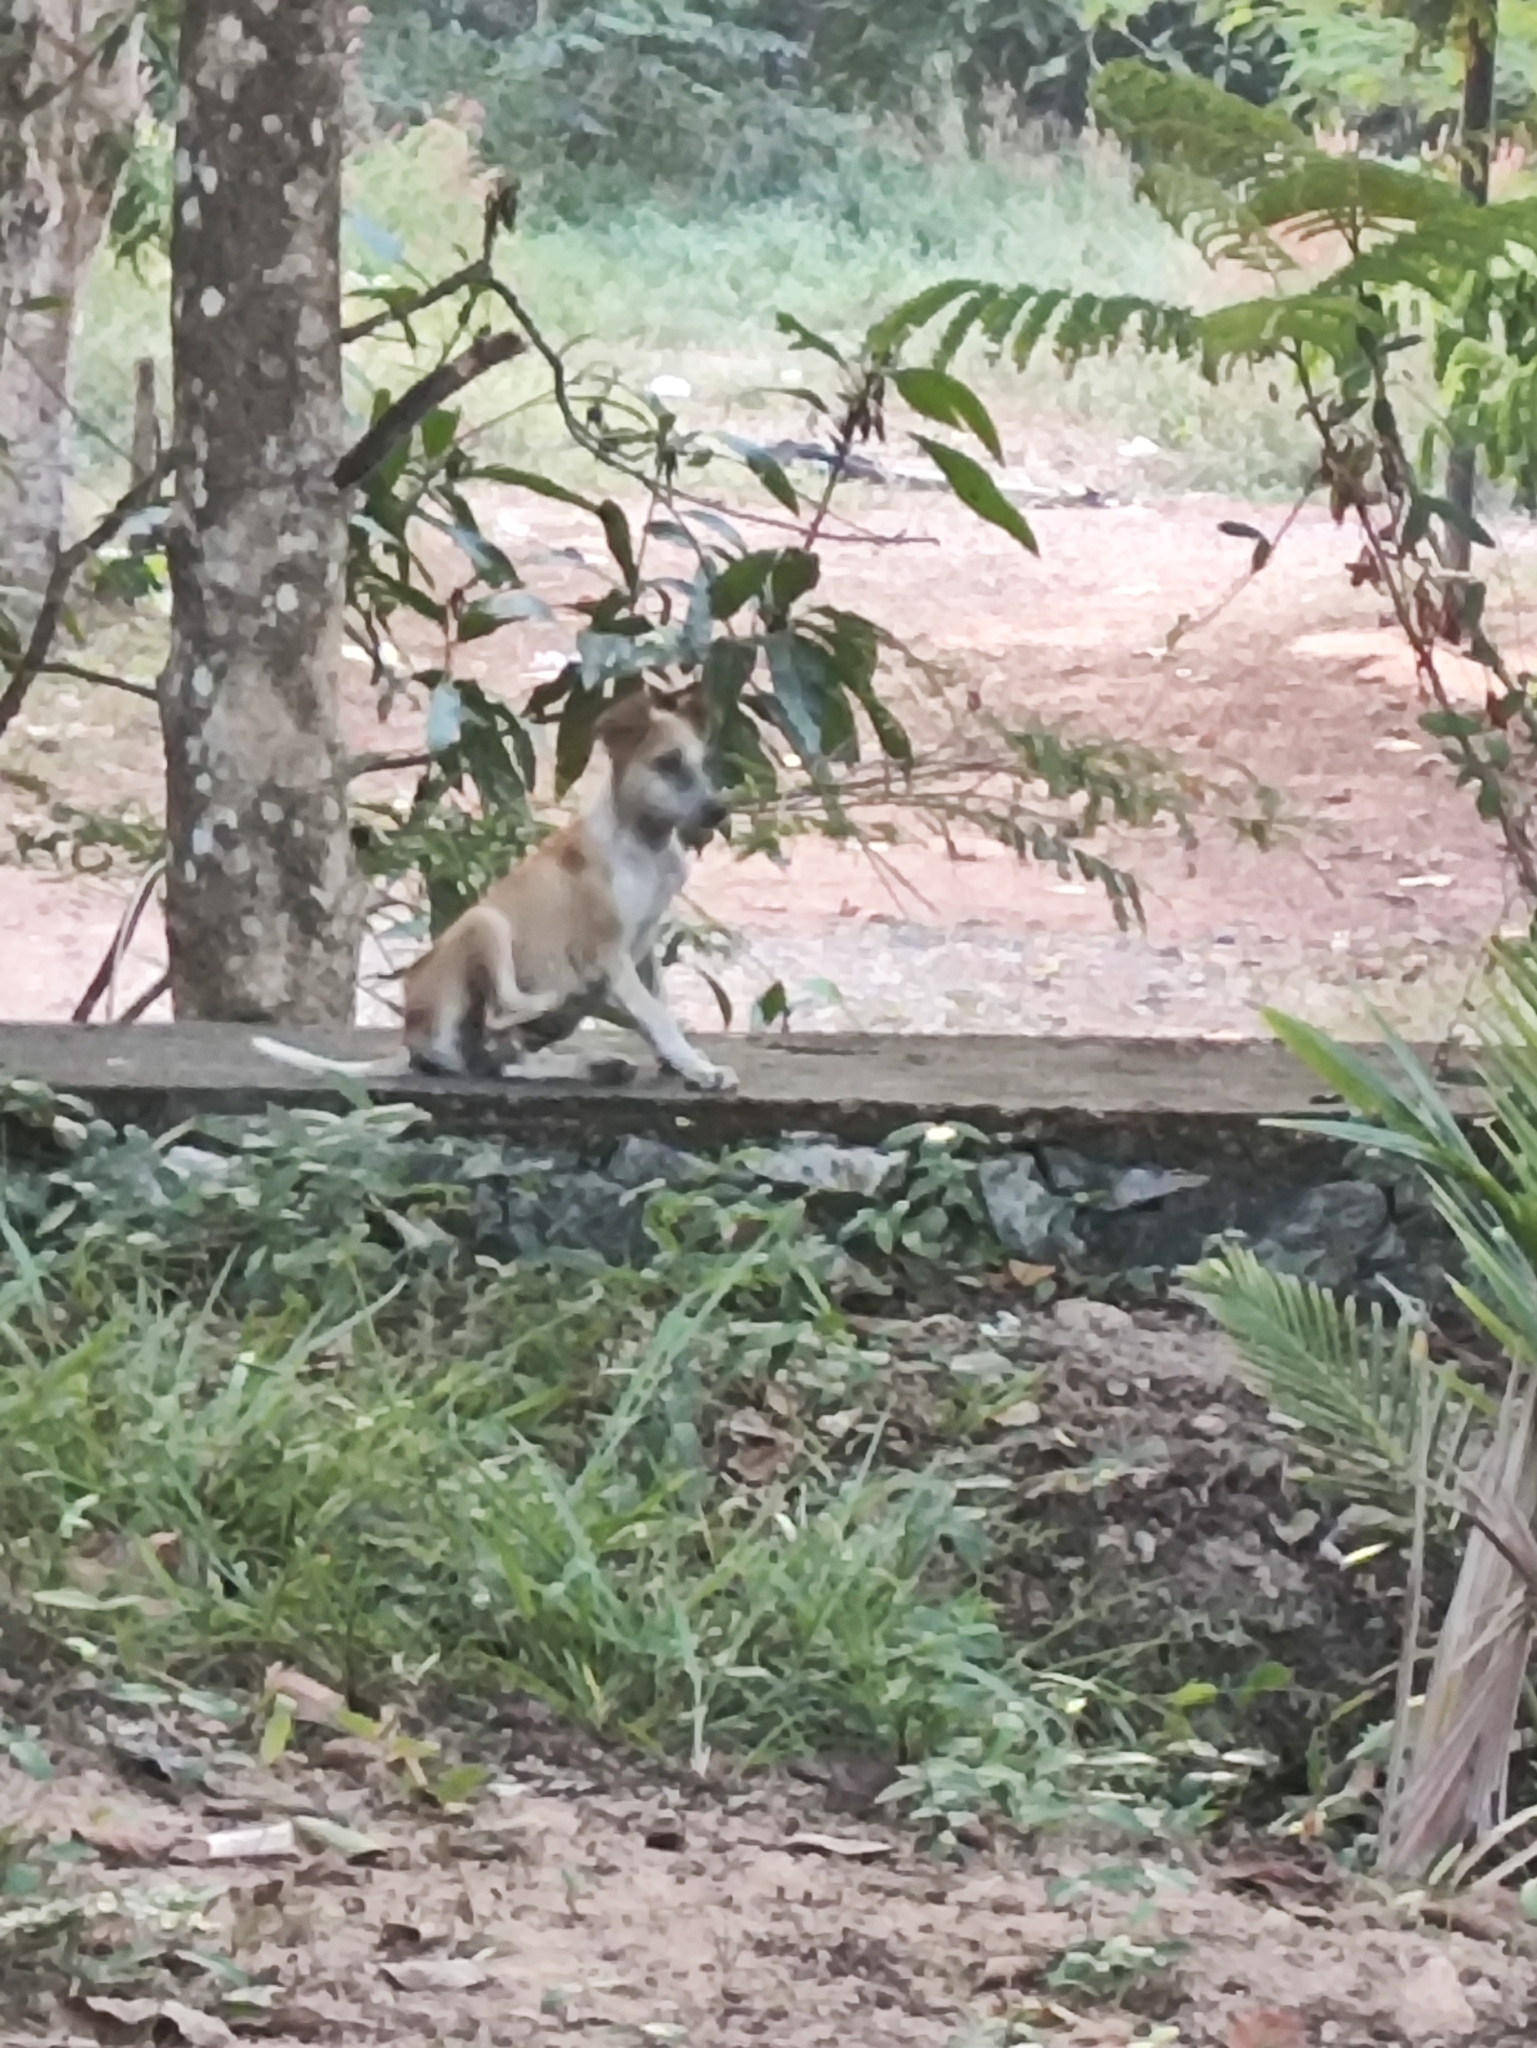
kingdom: Animalia
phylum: Chordata
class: Mammalia
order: Carnivora
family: Canidae
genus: Canis
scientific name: Canis lupus
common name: Gray wolf
